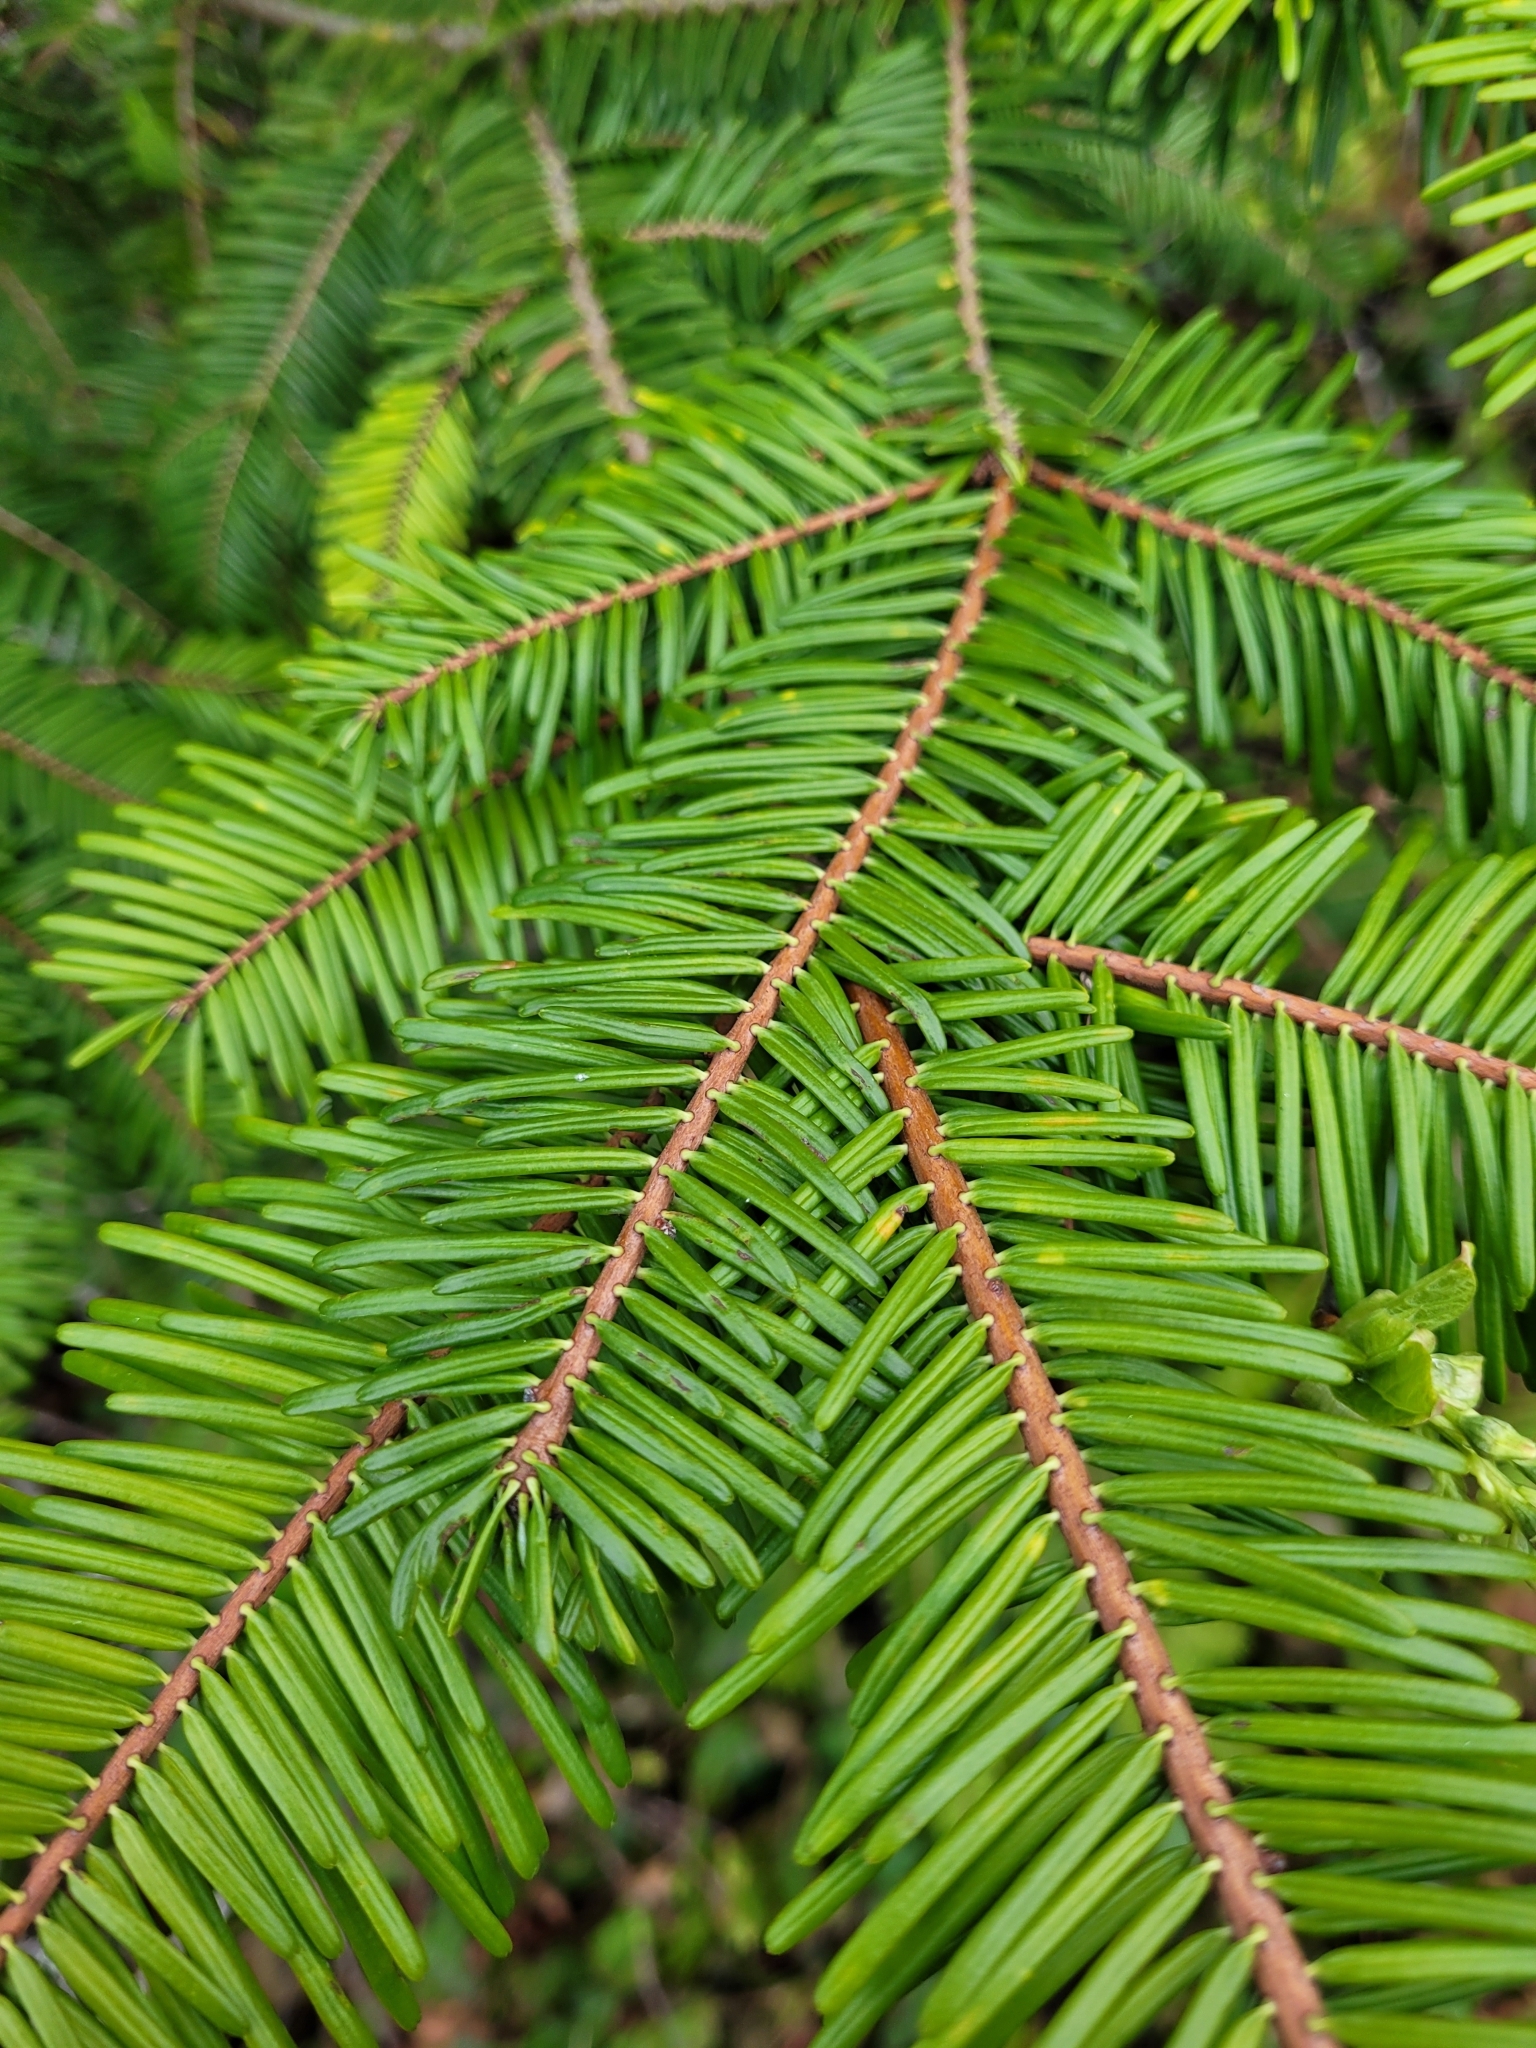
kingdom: Plantae
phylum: Tracheophyta
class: Pinopsida
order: Pinales
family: Pinaceae
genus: Abies
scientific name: Abies grandis
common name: Giant fir
